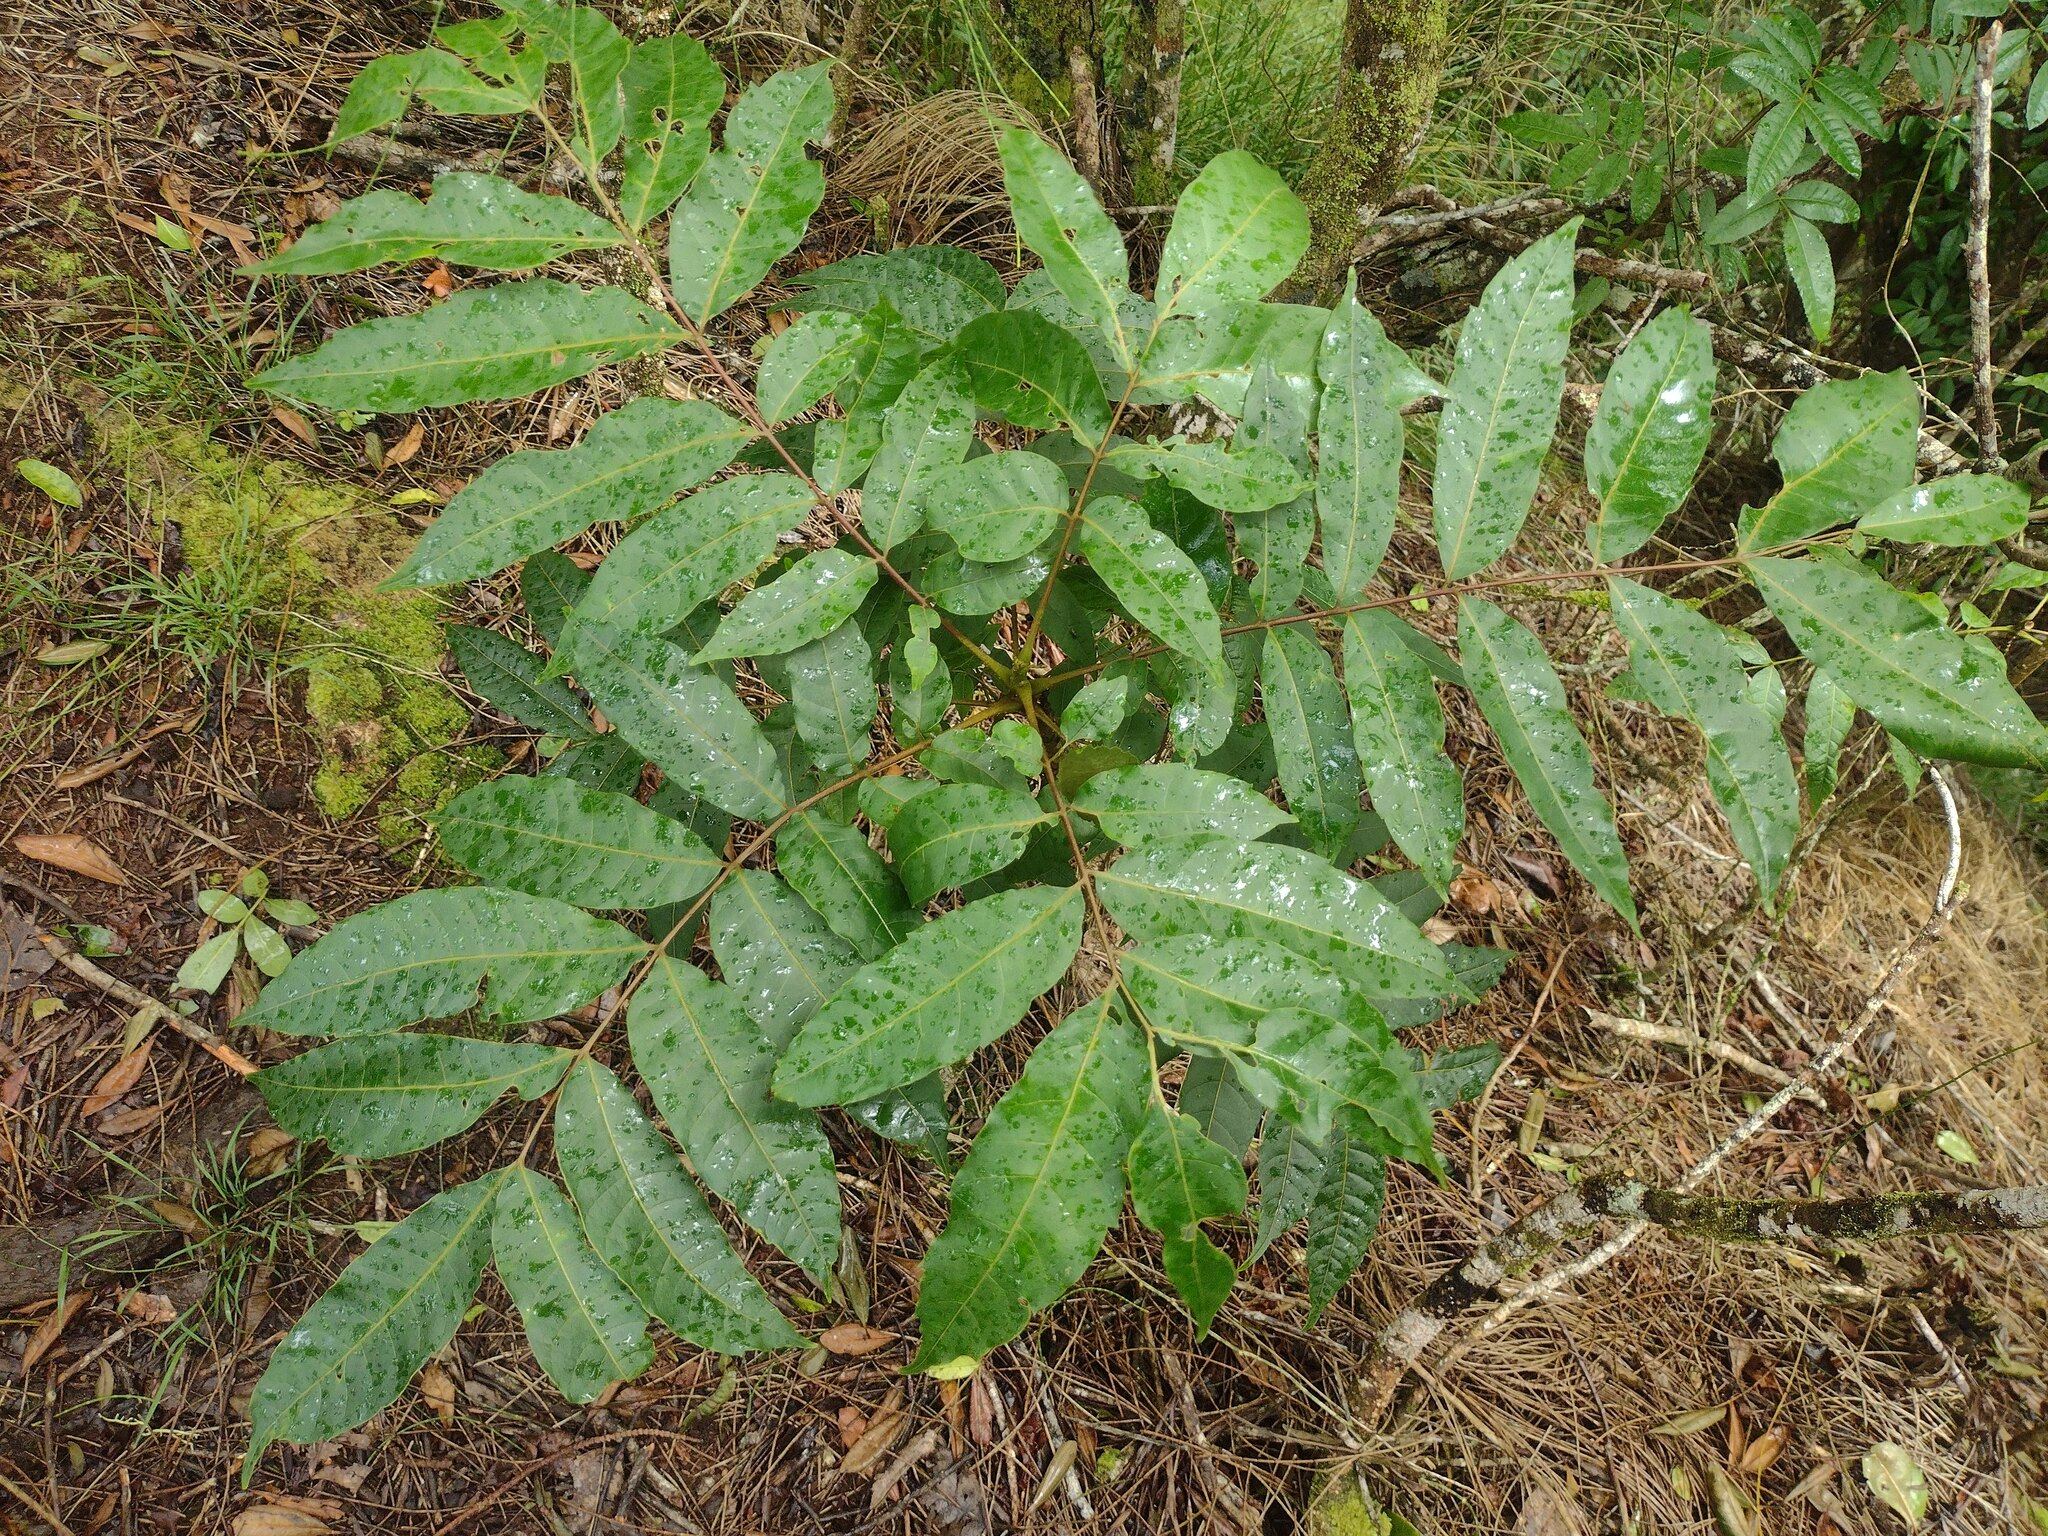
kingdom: Plantae
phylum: Tracheophyta
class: Magnoliopsida
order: Sapindales
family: Meliaceae
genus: Toona
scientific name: Toona ciliata
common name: Australian redcedar
